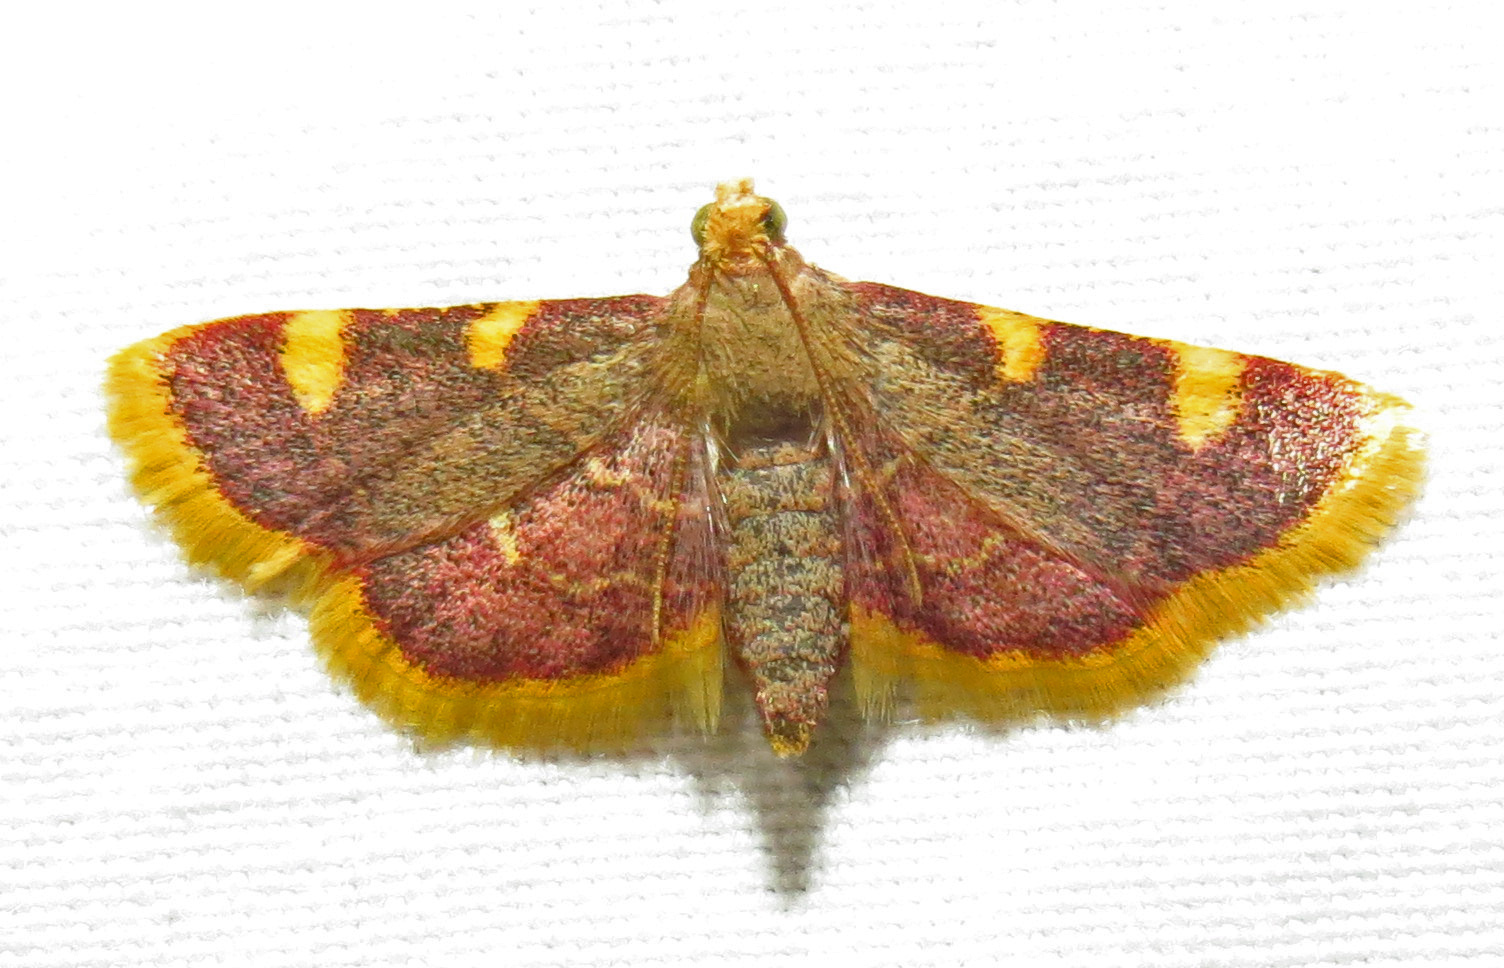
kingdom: Animalia
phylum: Arthropoda
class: Insecta
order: Lepidoptera
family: Pyralidae
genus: Hypsopygia
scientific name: Hypsopygia costalis
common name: Gold triangle
